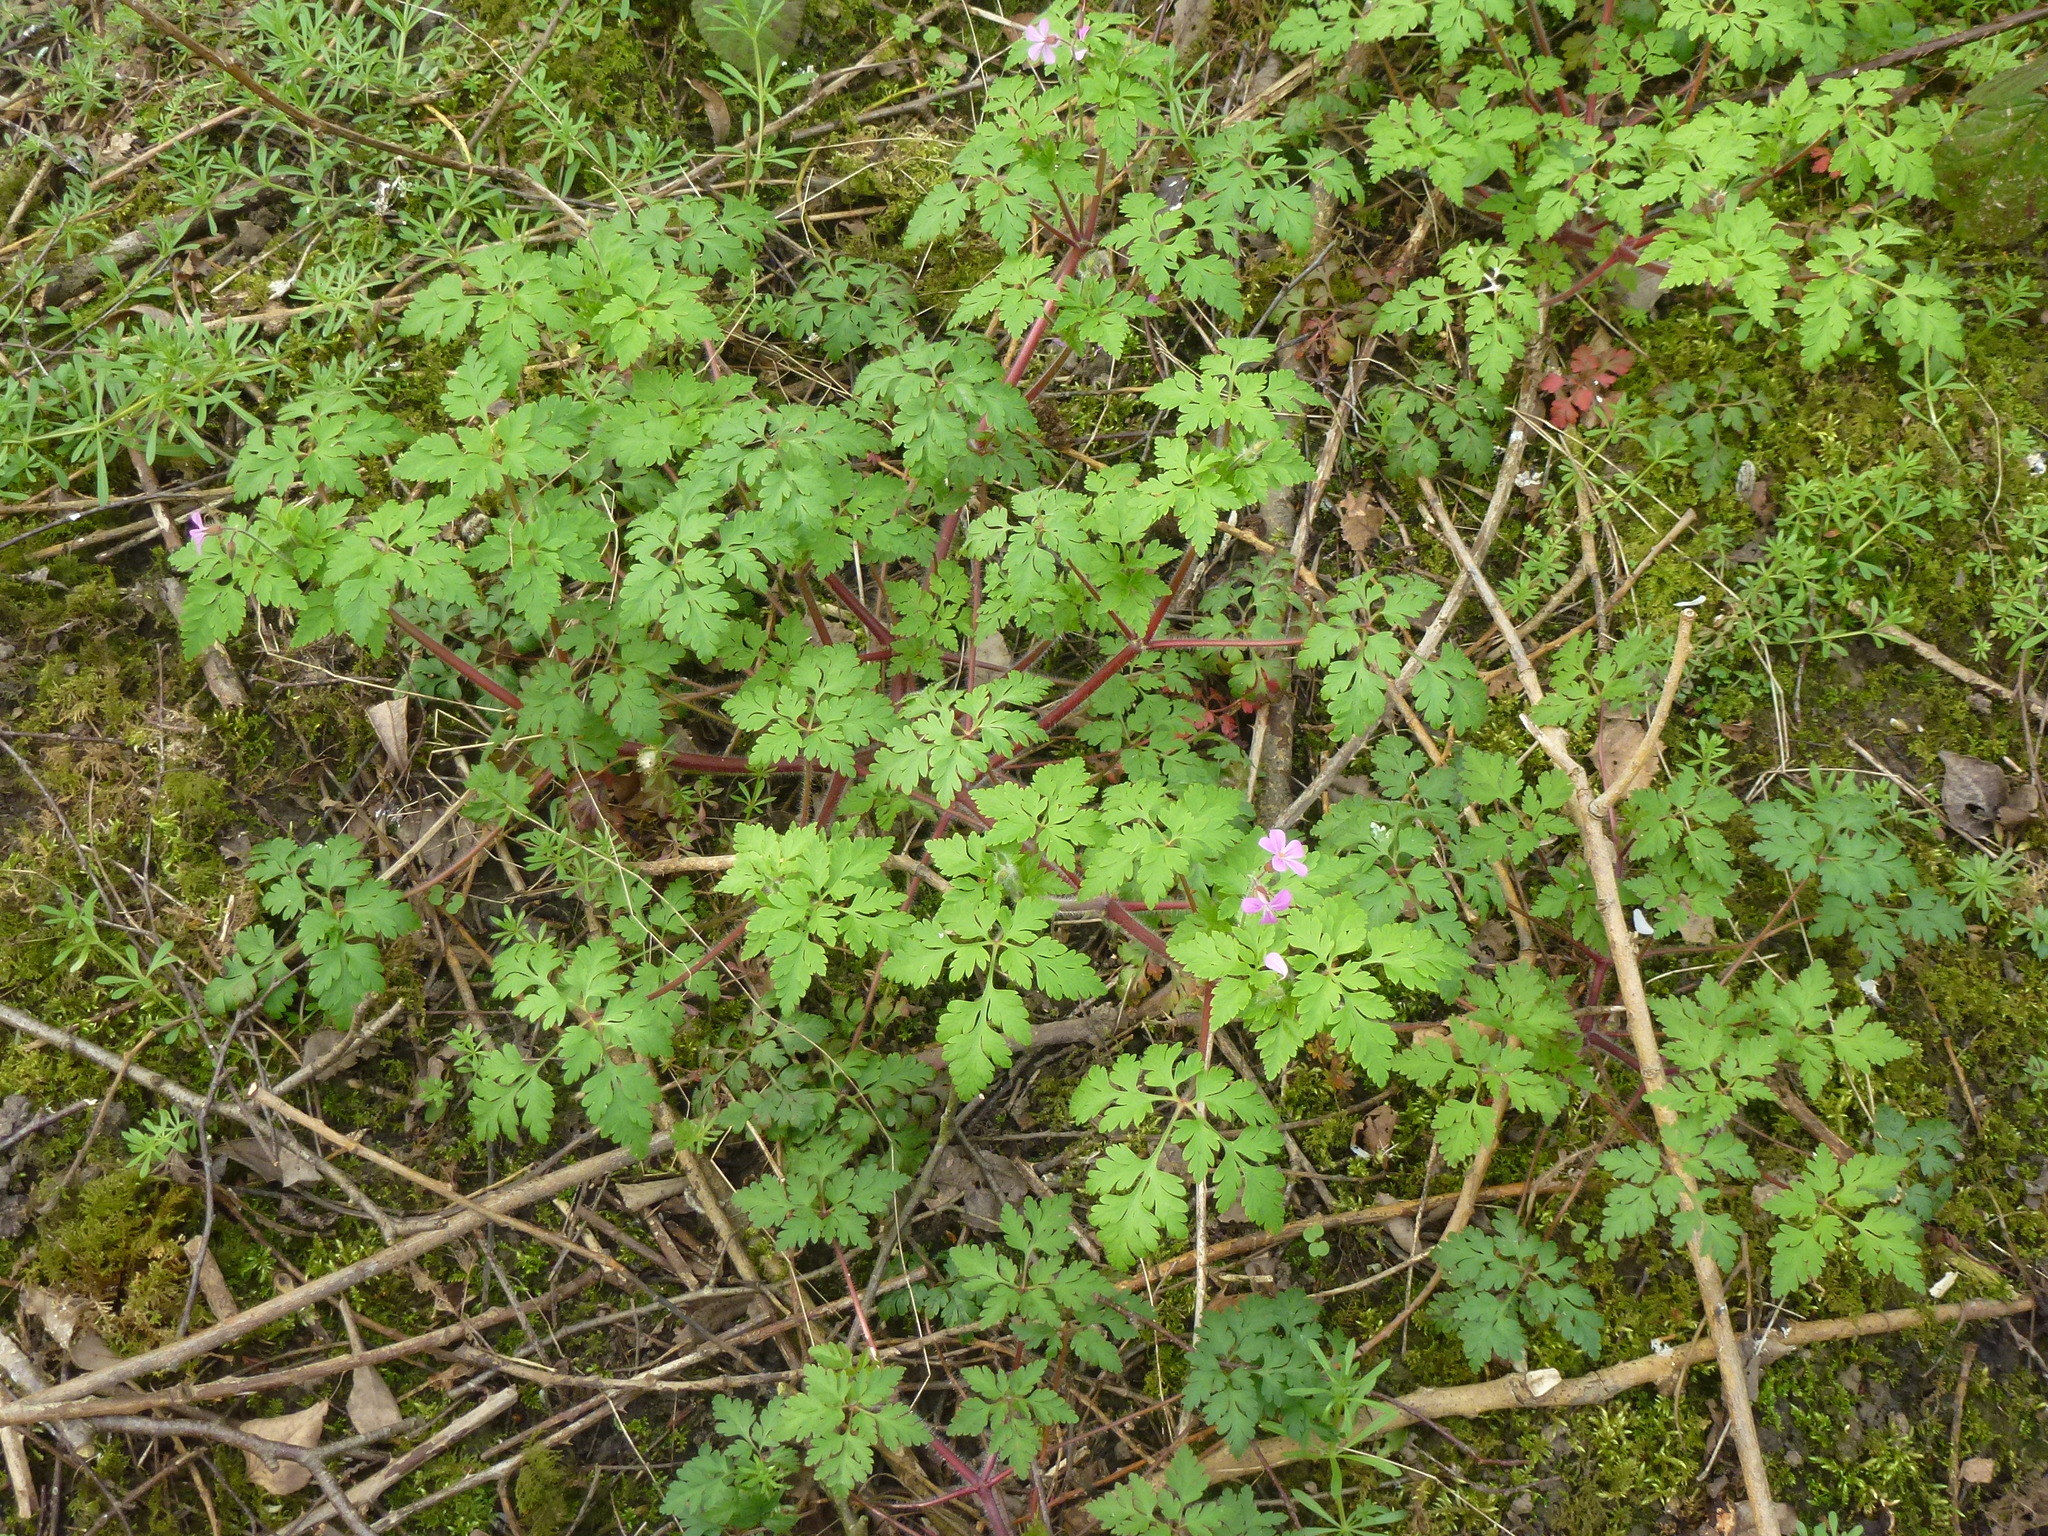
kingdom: Plantae
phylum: Tracheophyta
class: Magnoliopsida
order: Geraniales
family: Geraniaceae
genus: Geranium
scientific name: Geranium robertianum
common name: Herb-robert
